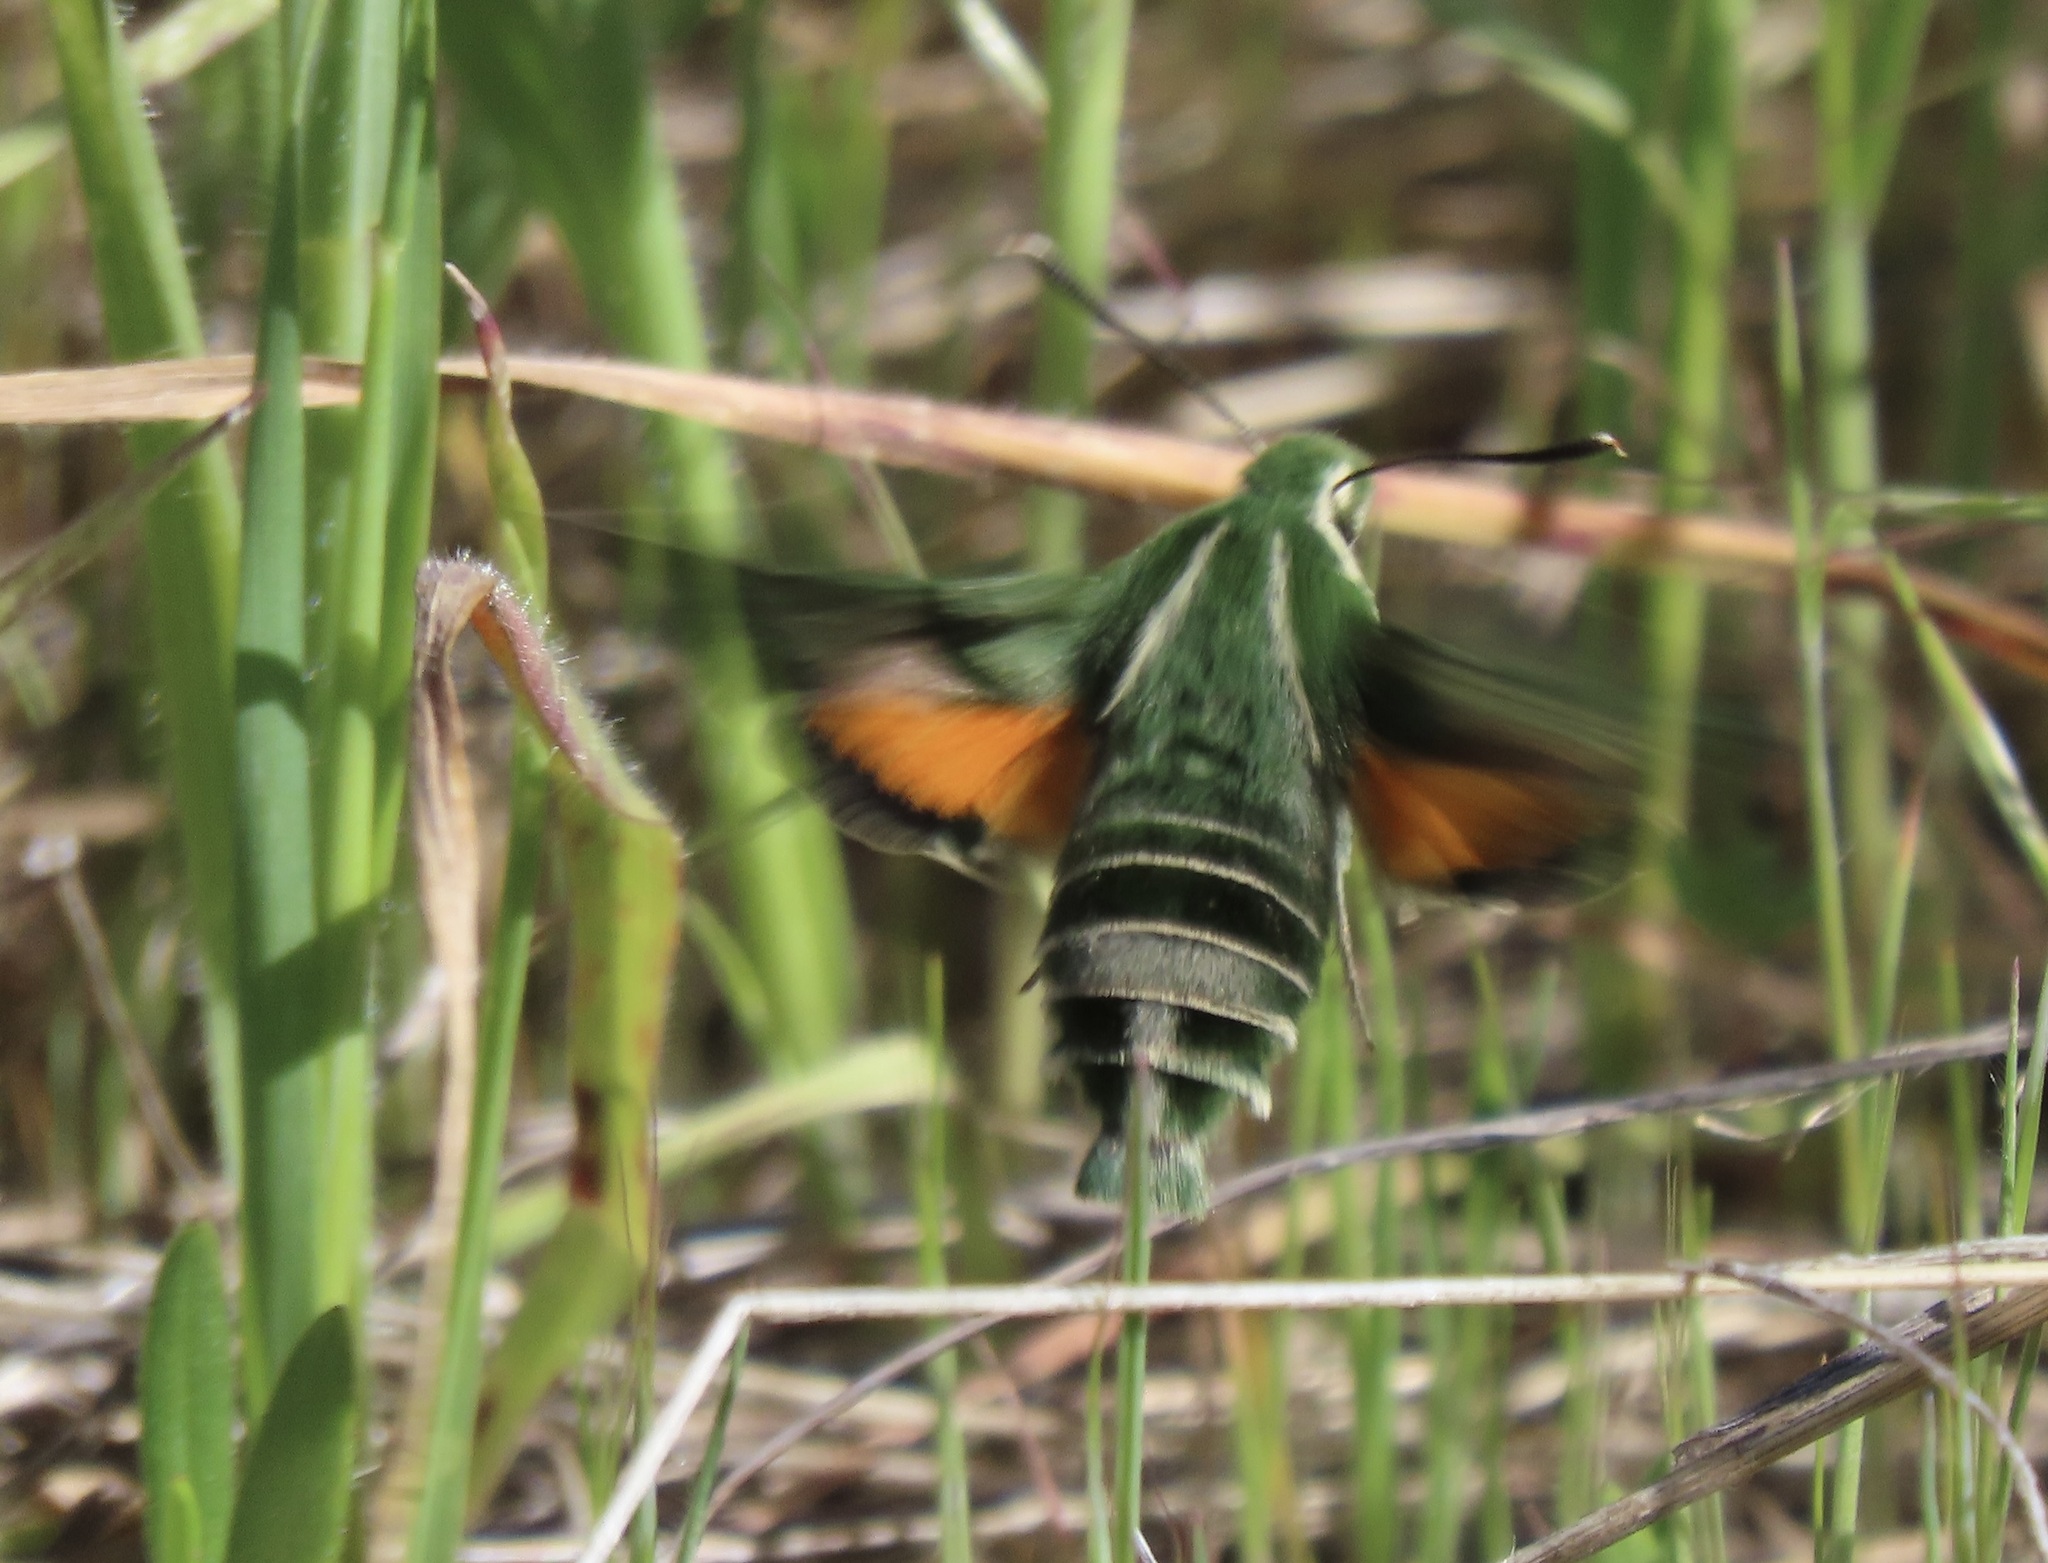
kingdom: Animalia
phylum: Arthropoda
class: Insecta
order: Lepidoptera
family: Sphingidae
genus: Proserpinus
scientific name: Proserpinus clarkiae
